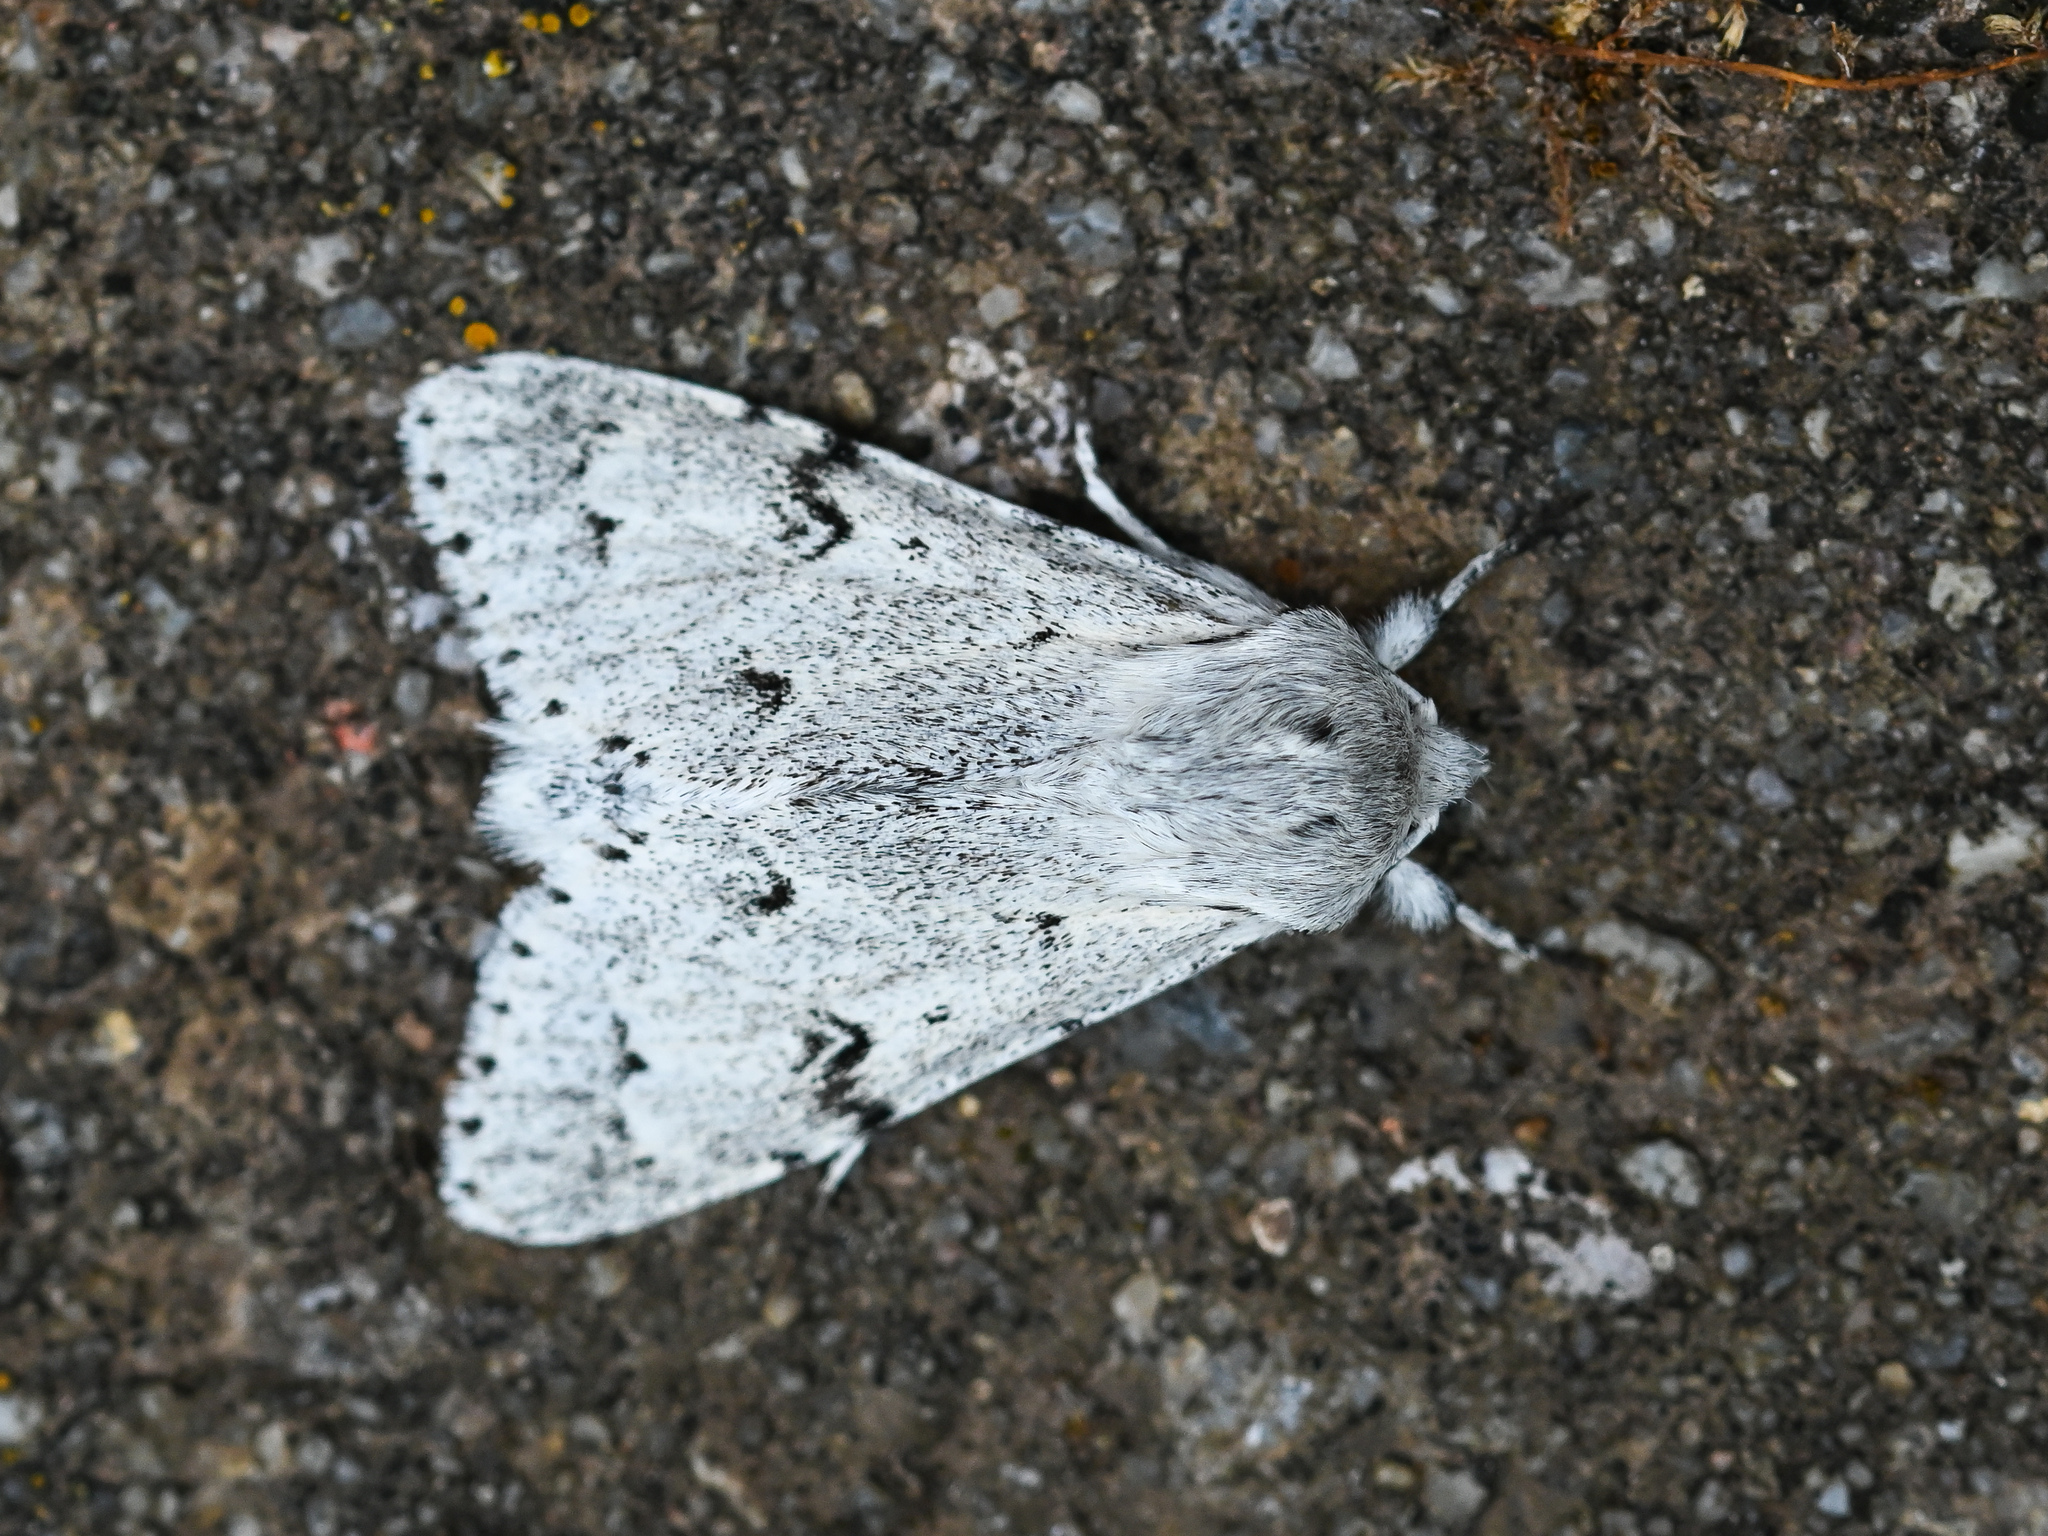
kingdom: Animalia
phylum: Arthropoda
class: Insecta
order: Lepidoptera
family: Noctuidae
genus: Acronicta
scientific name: Acronicta leporina
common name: Miller
